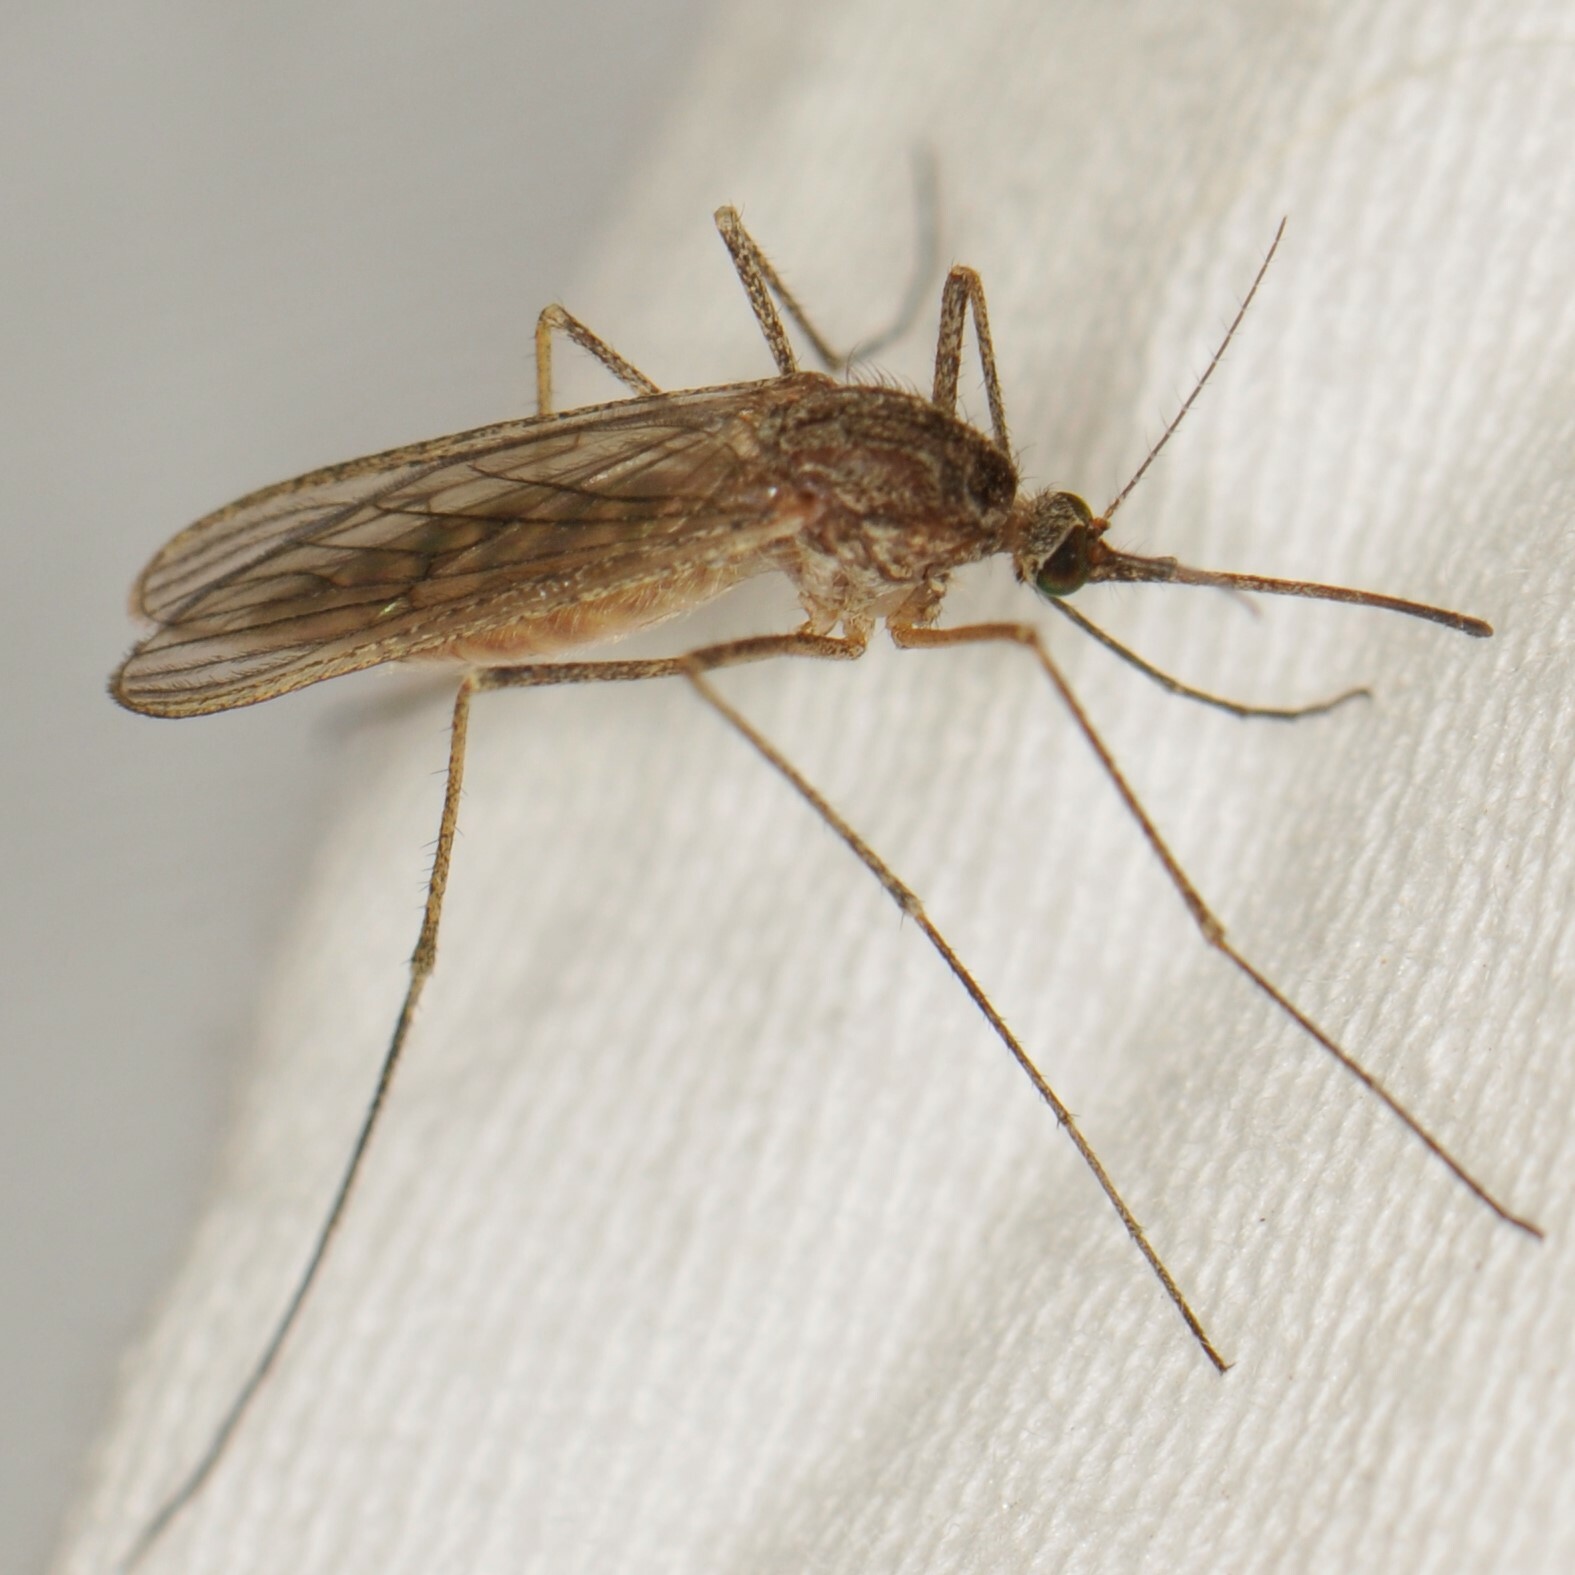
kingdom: Animalia
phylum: Arthropoda
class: Insecta
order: Diptera
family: Culicidae
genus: Culiseta
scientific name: Culiseta inornata
